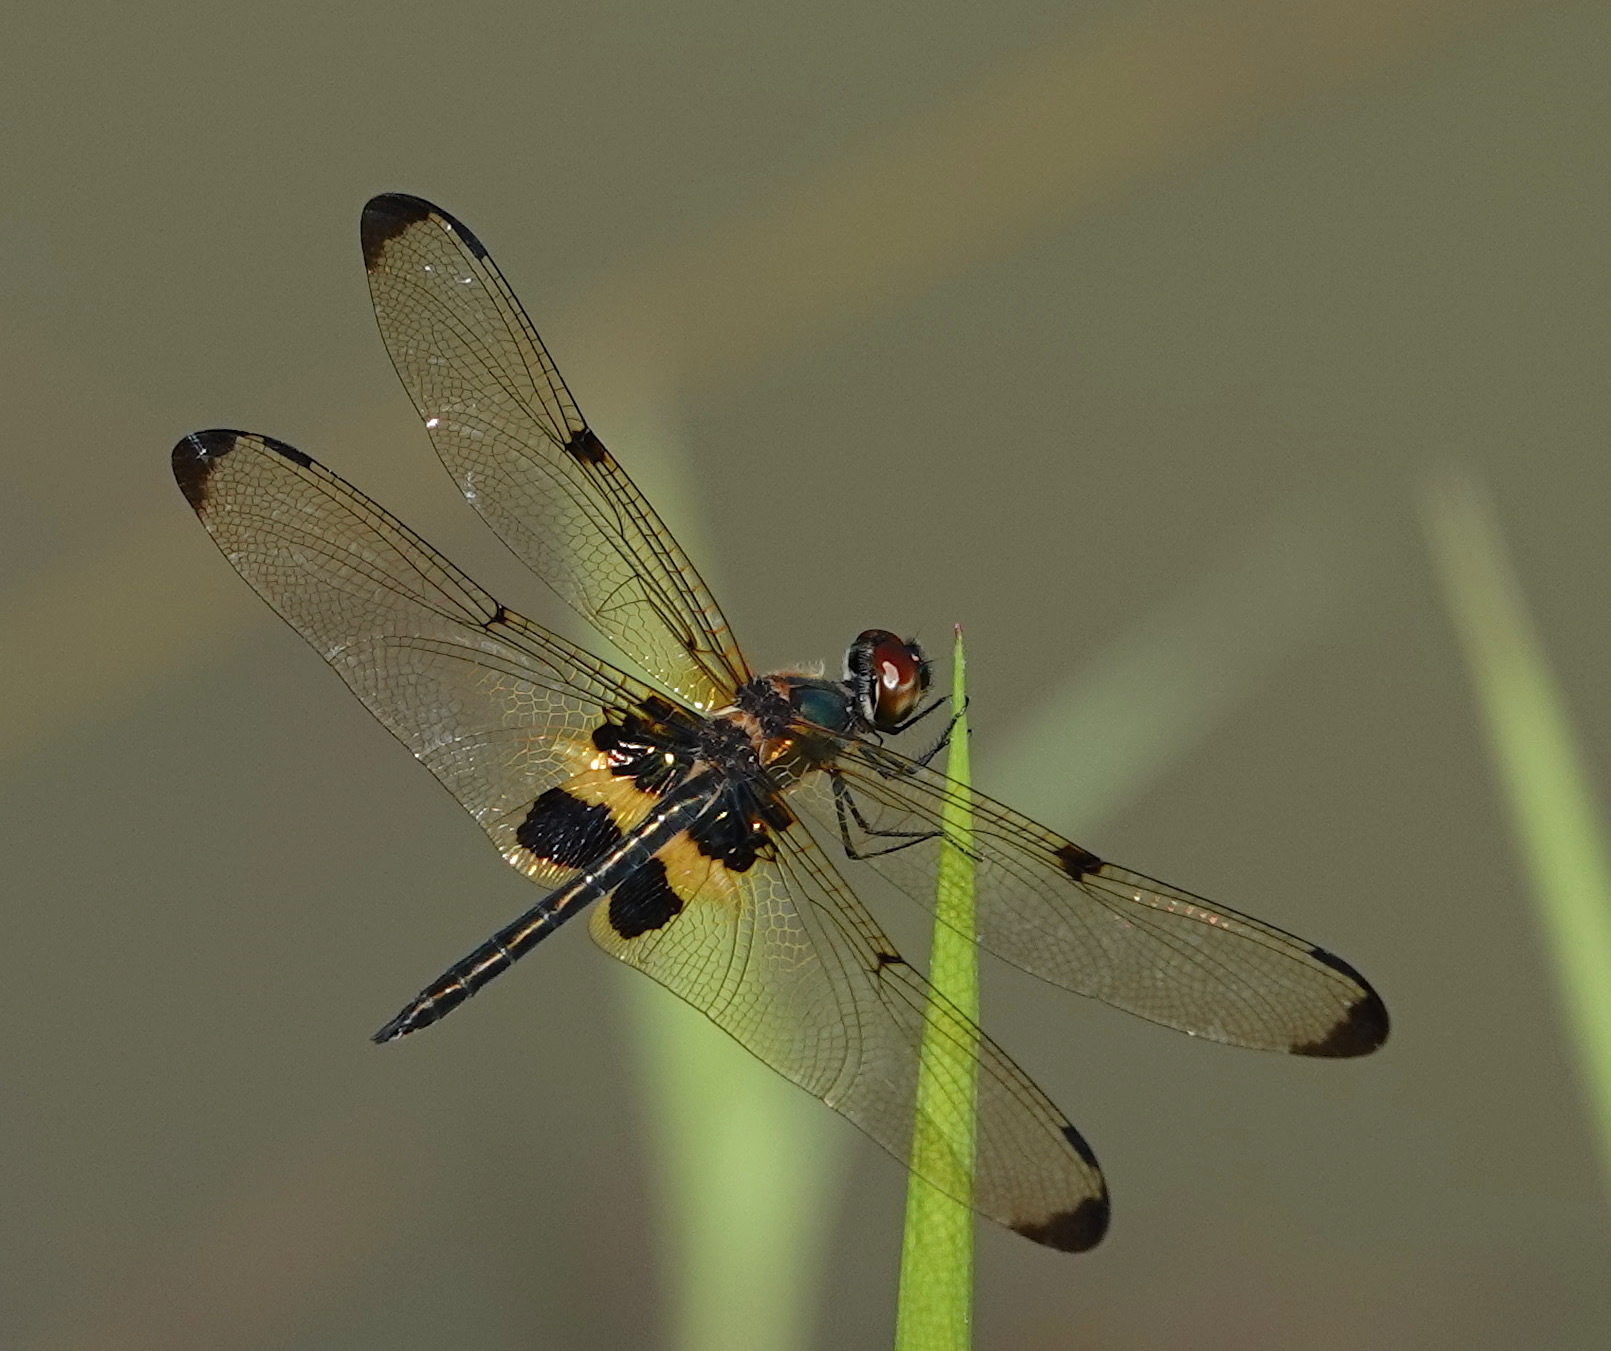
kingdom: Animalia
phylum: Arthropoda
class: Insecta
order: Odonata
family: Libellulidae
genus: Rhyothemis
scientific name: Rhyothemis phyllis
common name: Yellow-barred flutterer
